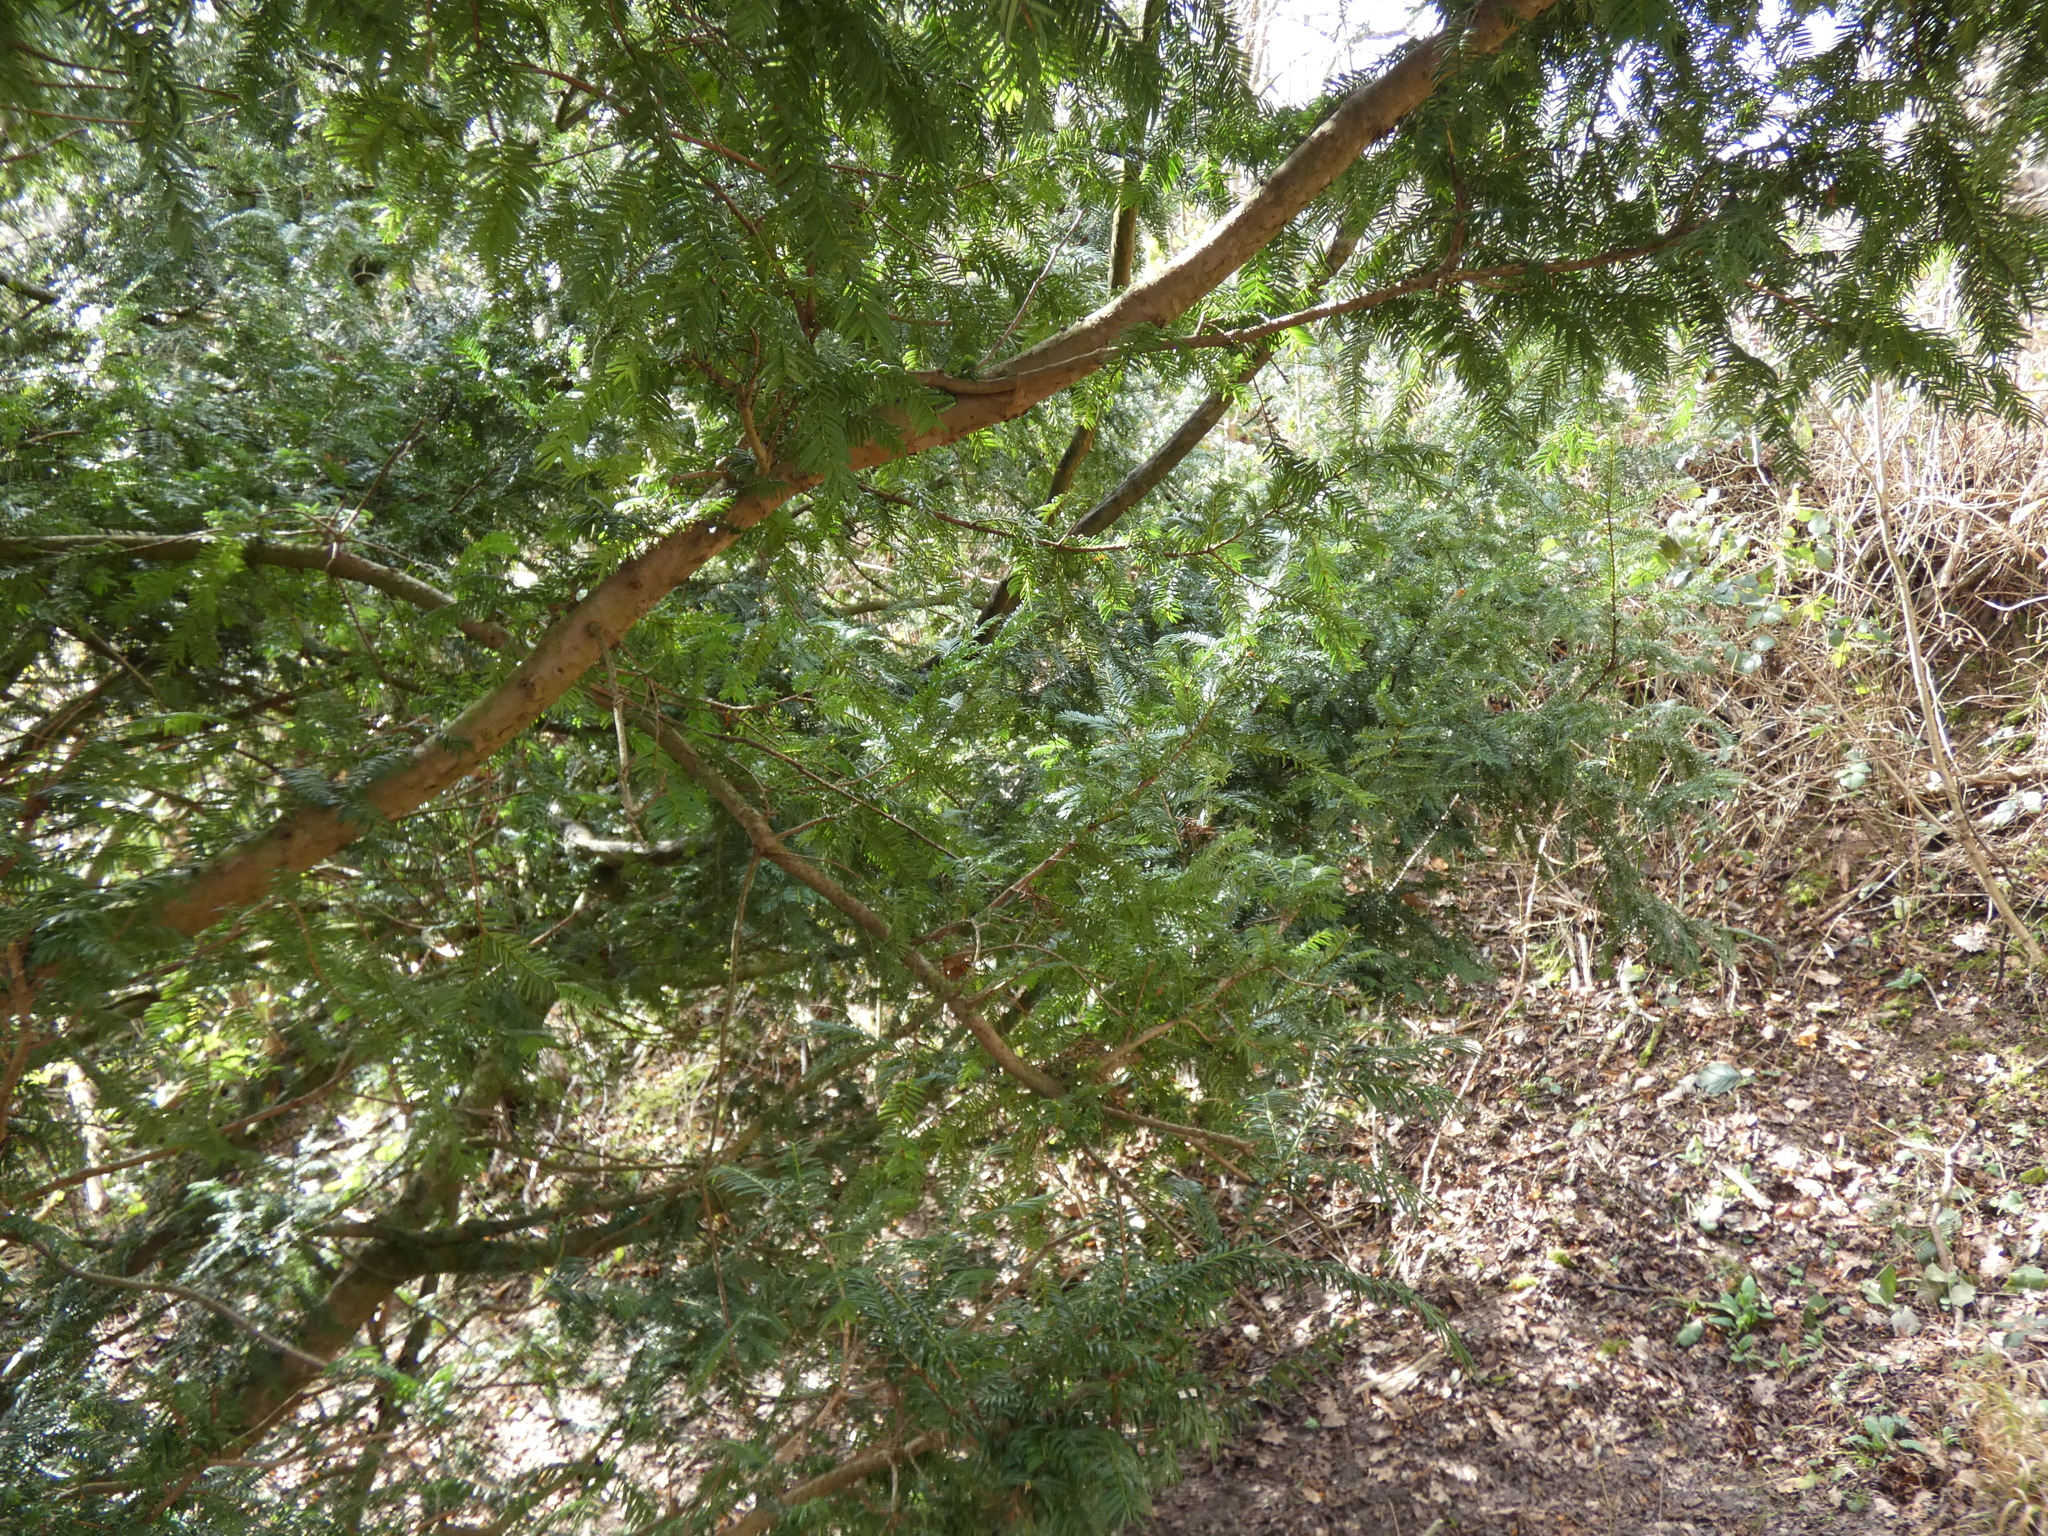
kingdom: Plantae
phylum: Tracheophyta
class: Pinopsida
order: Pinales
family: Taxaceae
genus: Taxus
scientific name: Taxus baccata
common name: Yew
